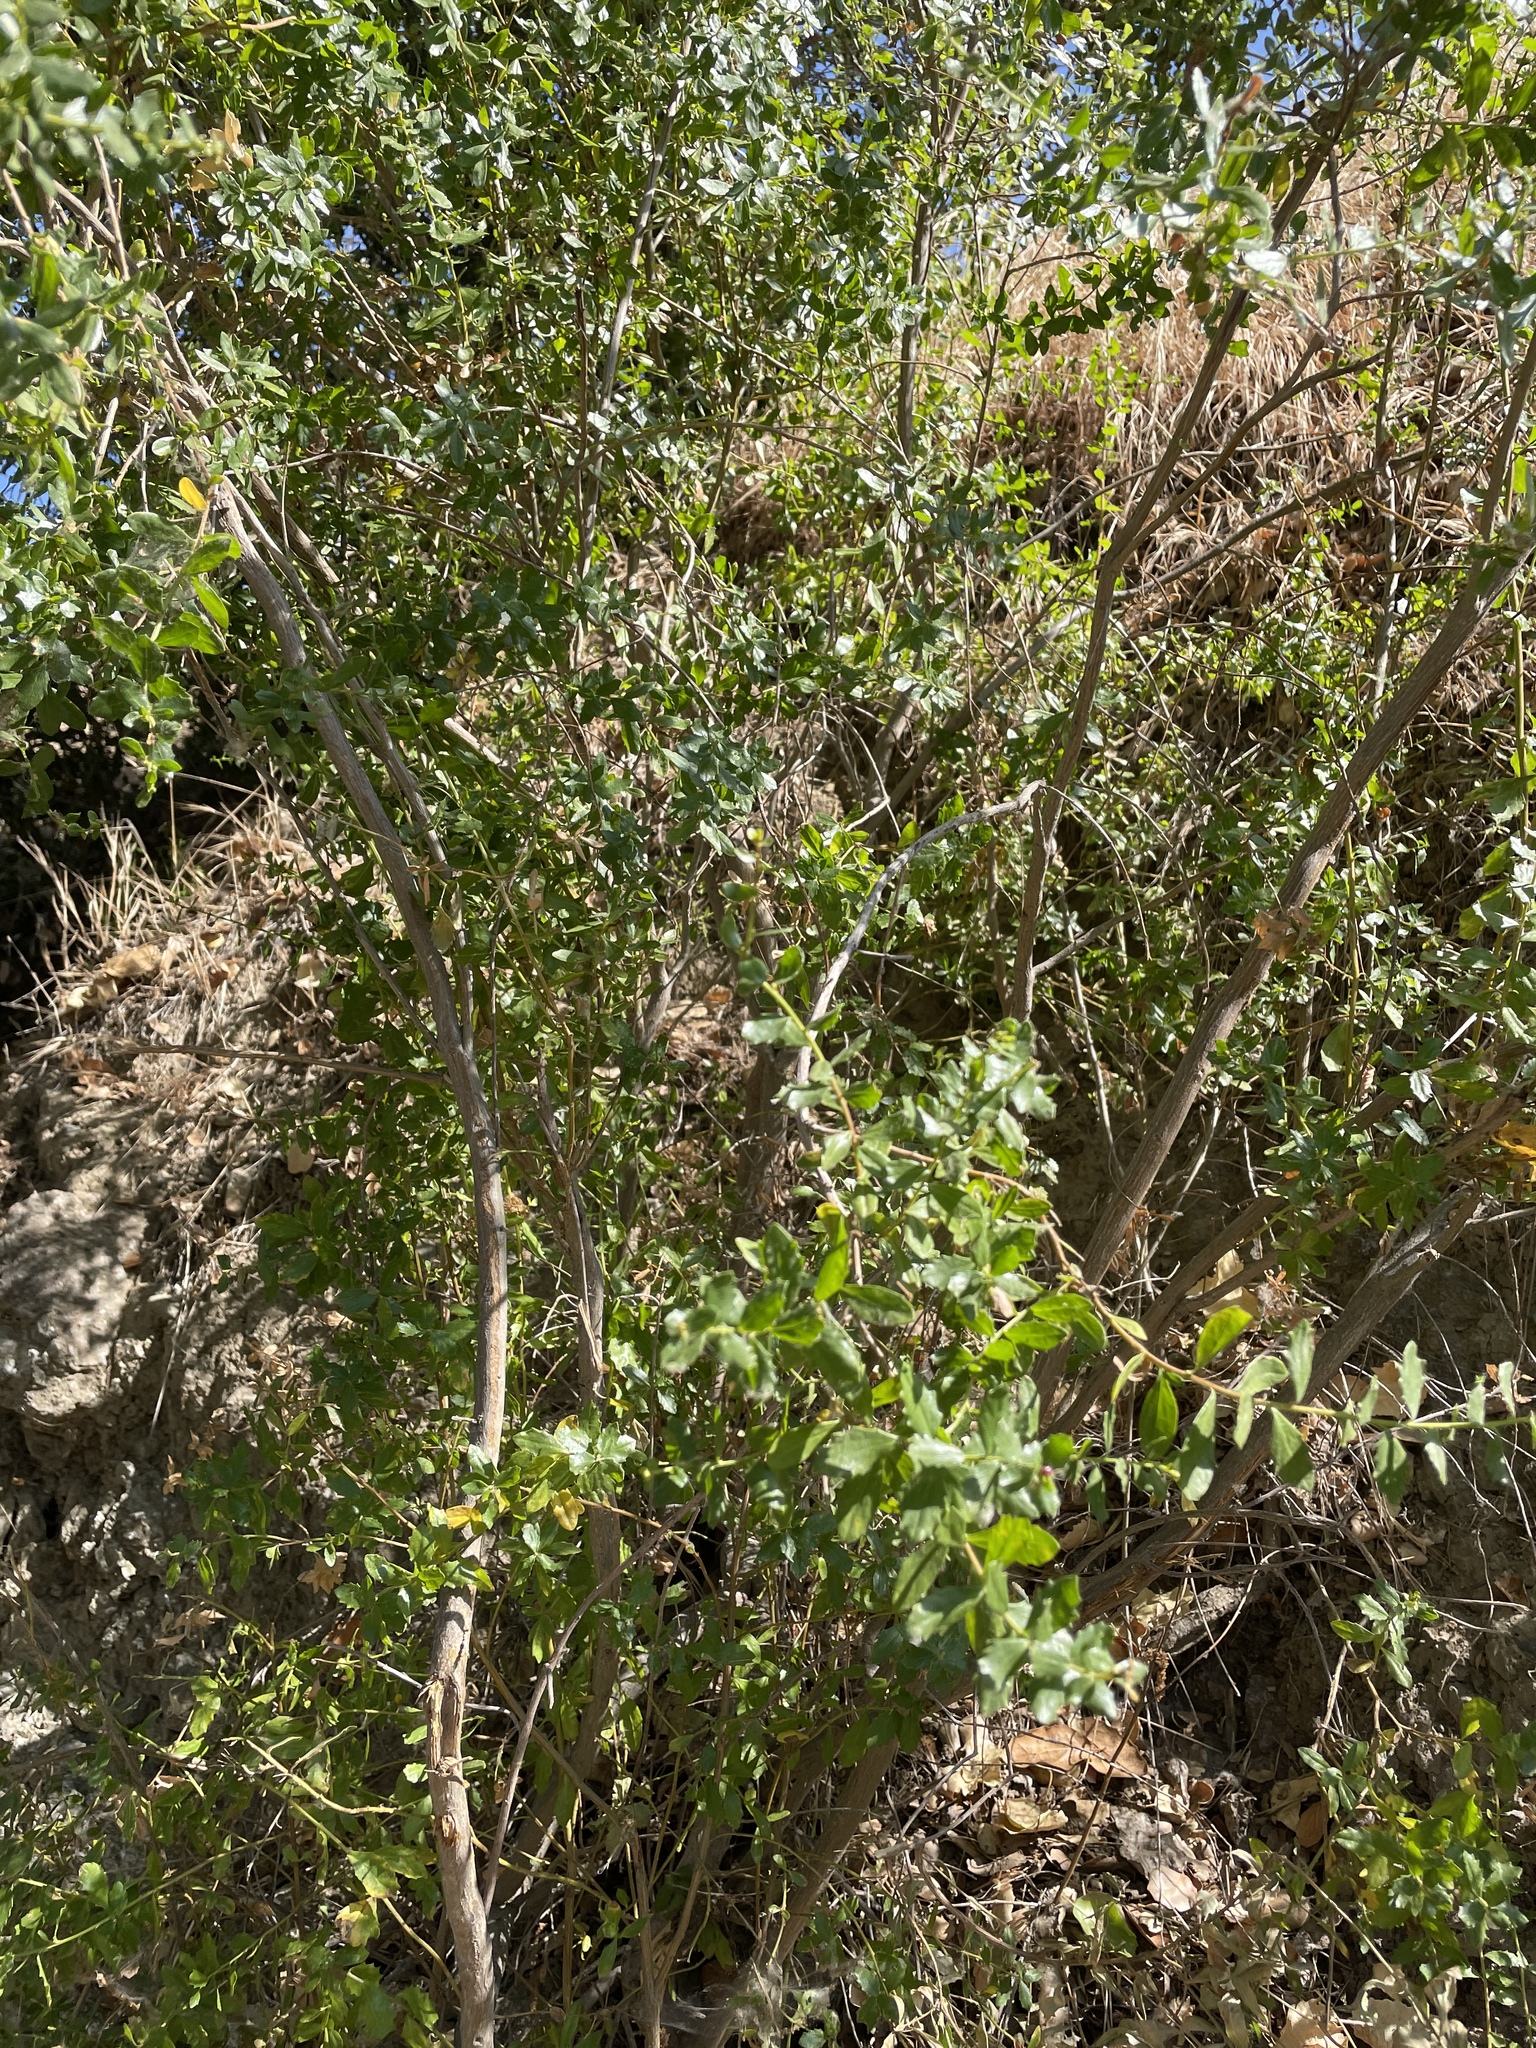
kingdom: Plantae
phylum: Tracheophyta
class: Magnoliopsida
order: Asterales
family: Asteraceae
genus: Baccharis
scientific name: Baccharis pilularis
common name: Coyotebrush
